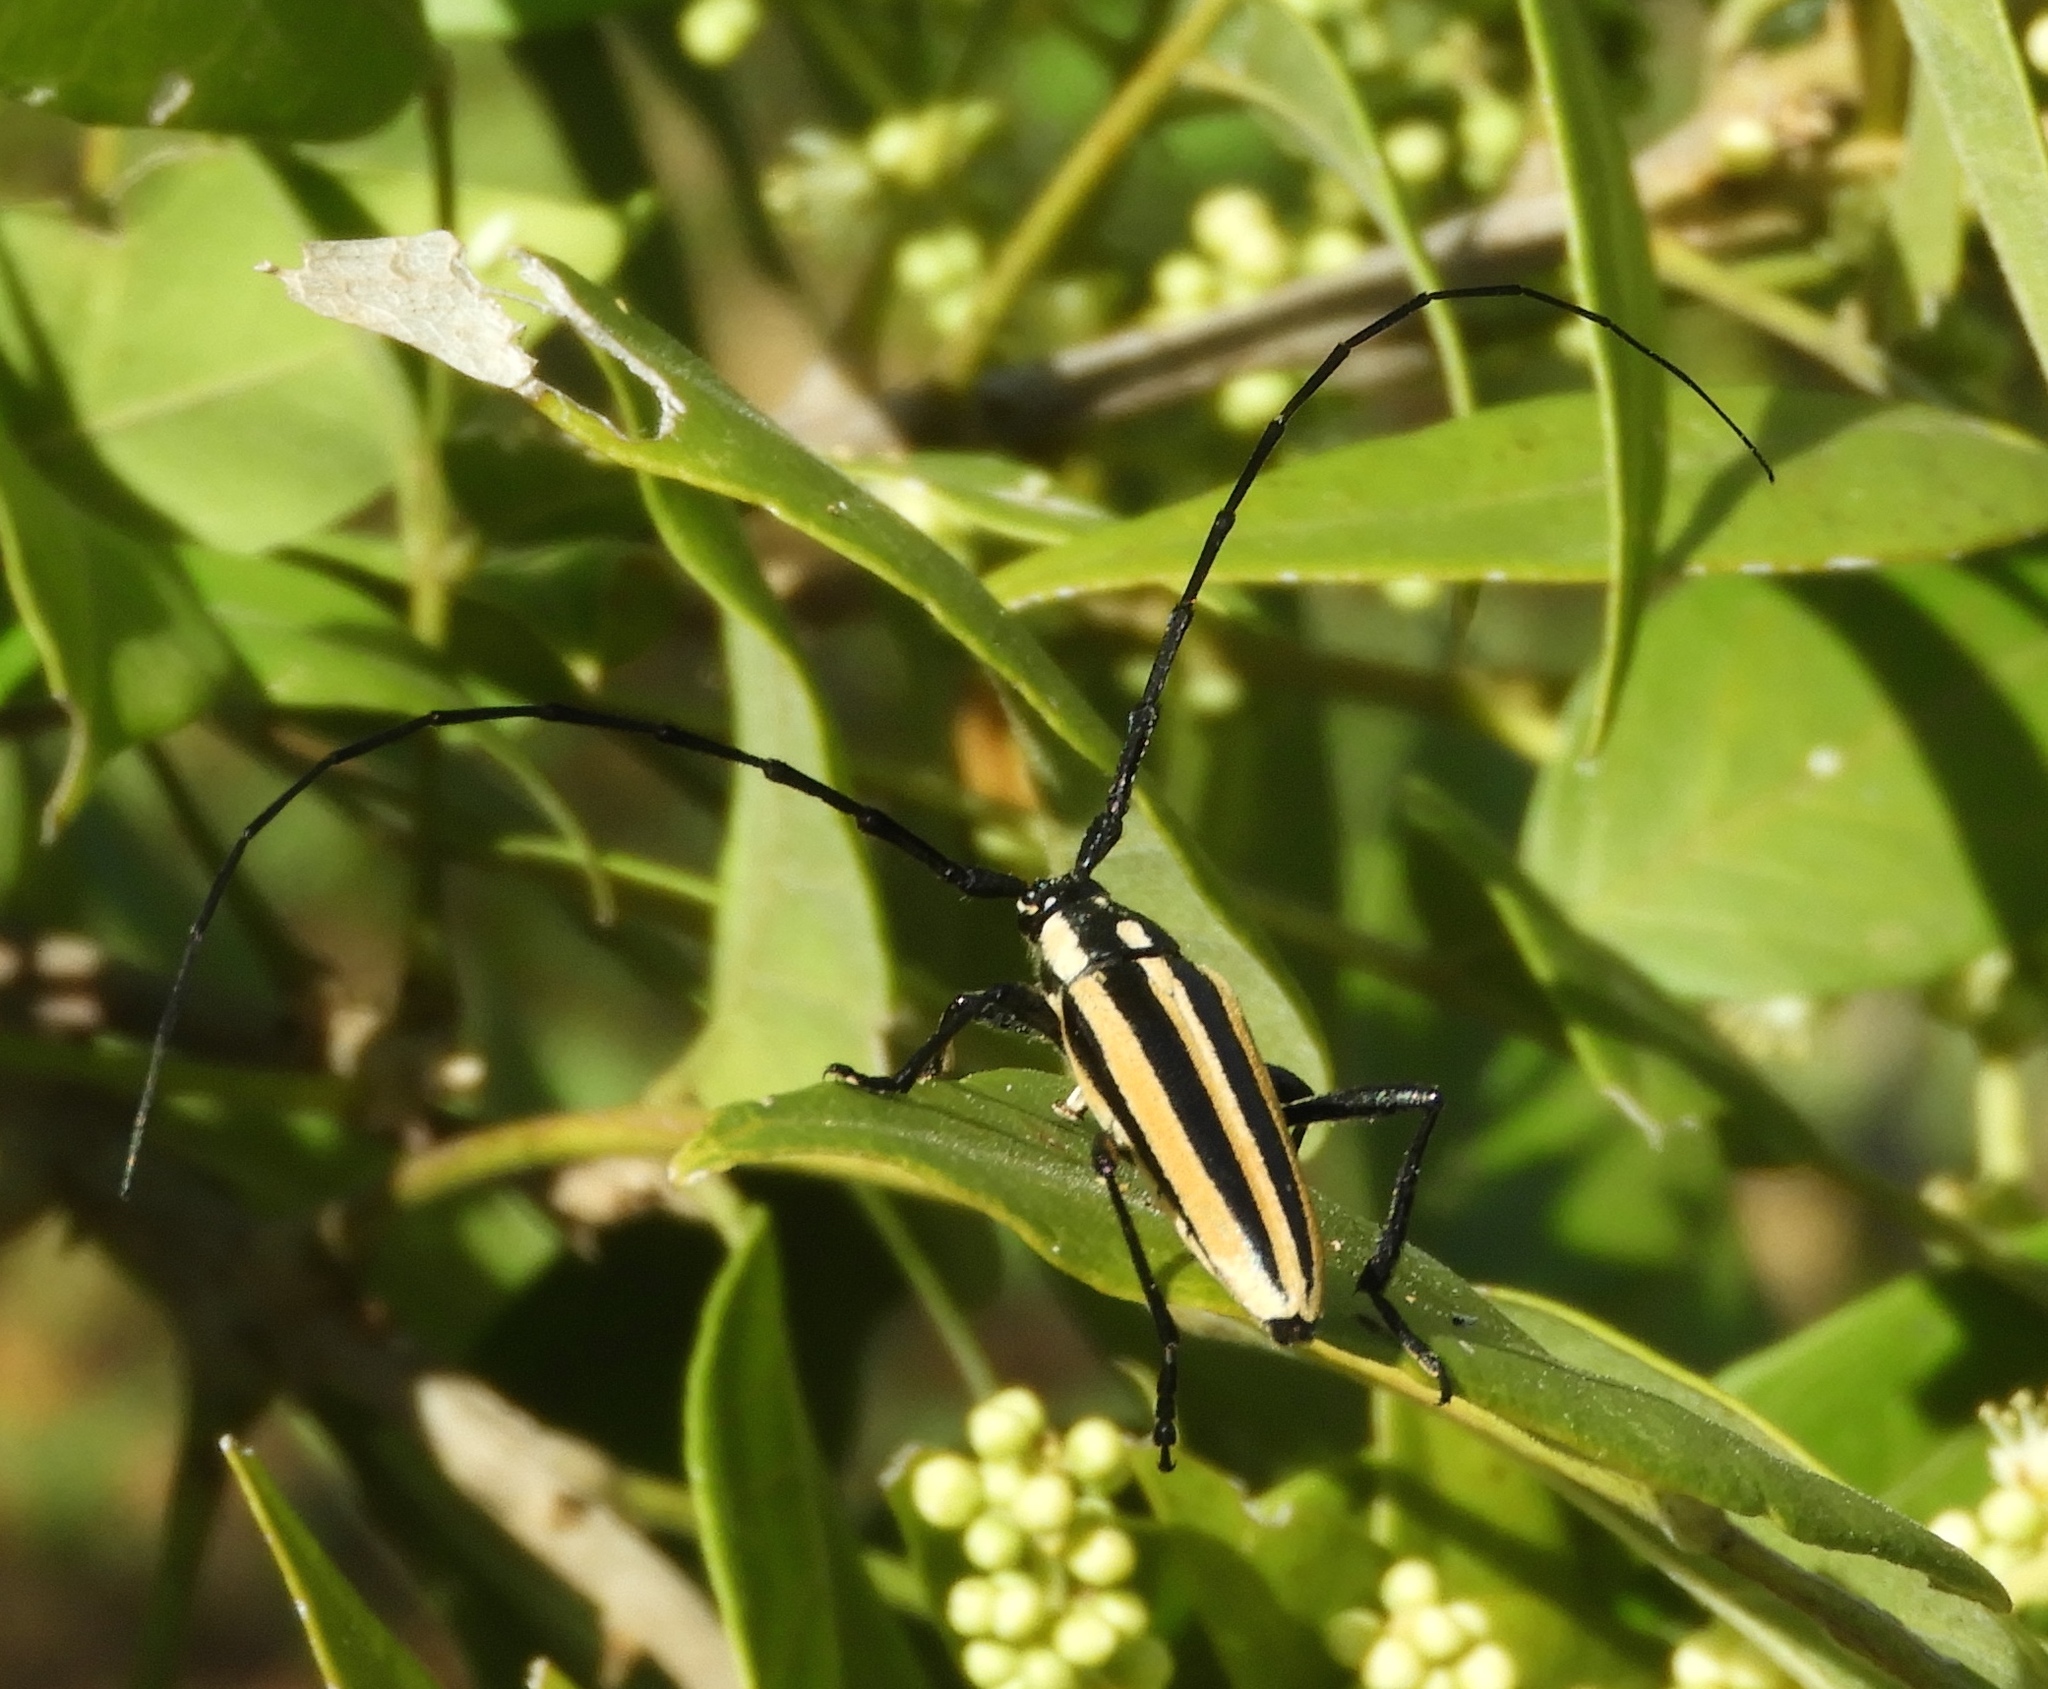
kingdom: Animalia
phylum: Arthropoda
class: Insecta
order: Coleoptera
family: Cerambycidae
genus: Sphaenothecus
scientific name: Sphaenothecus trilineatus
